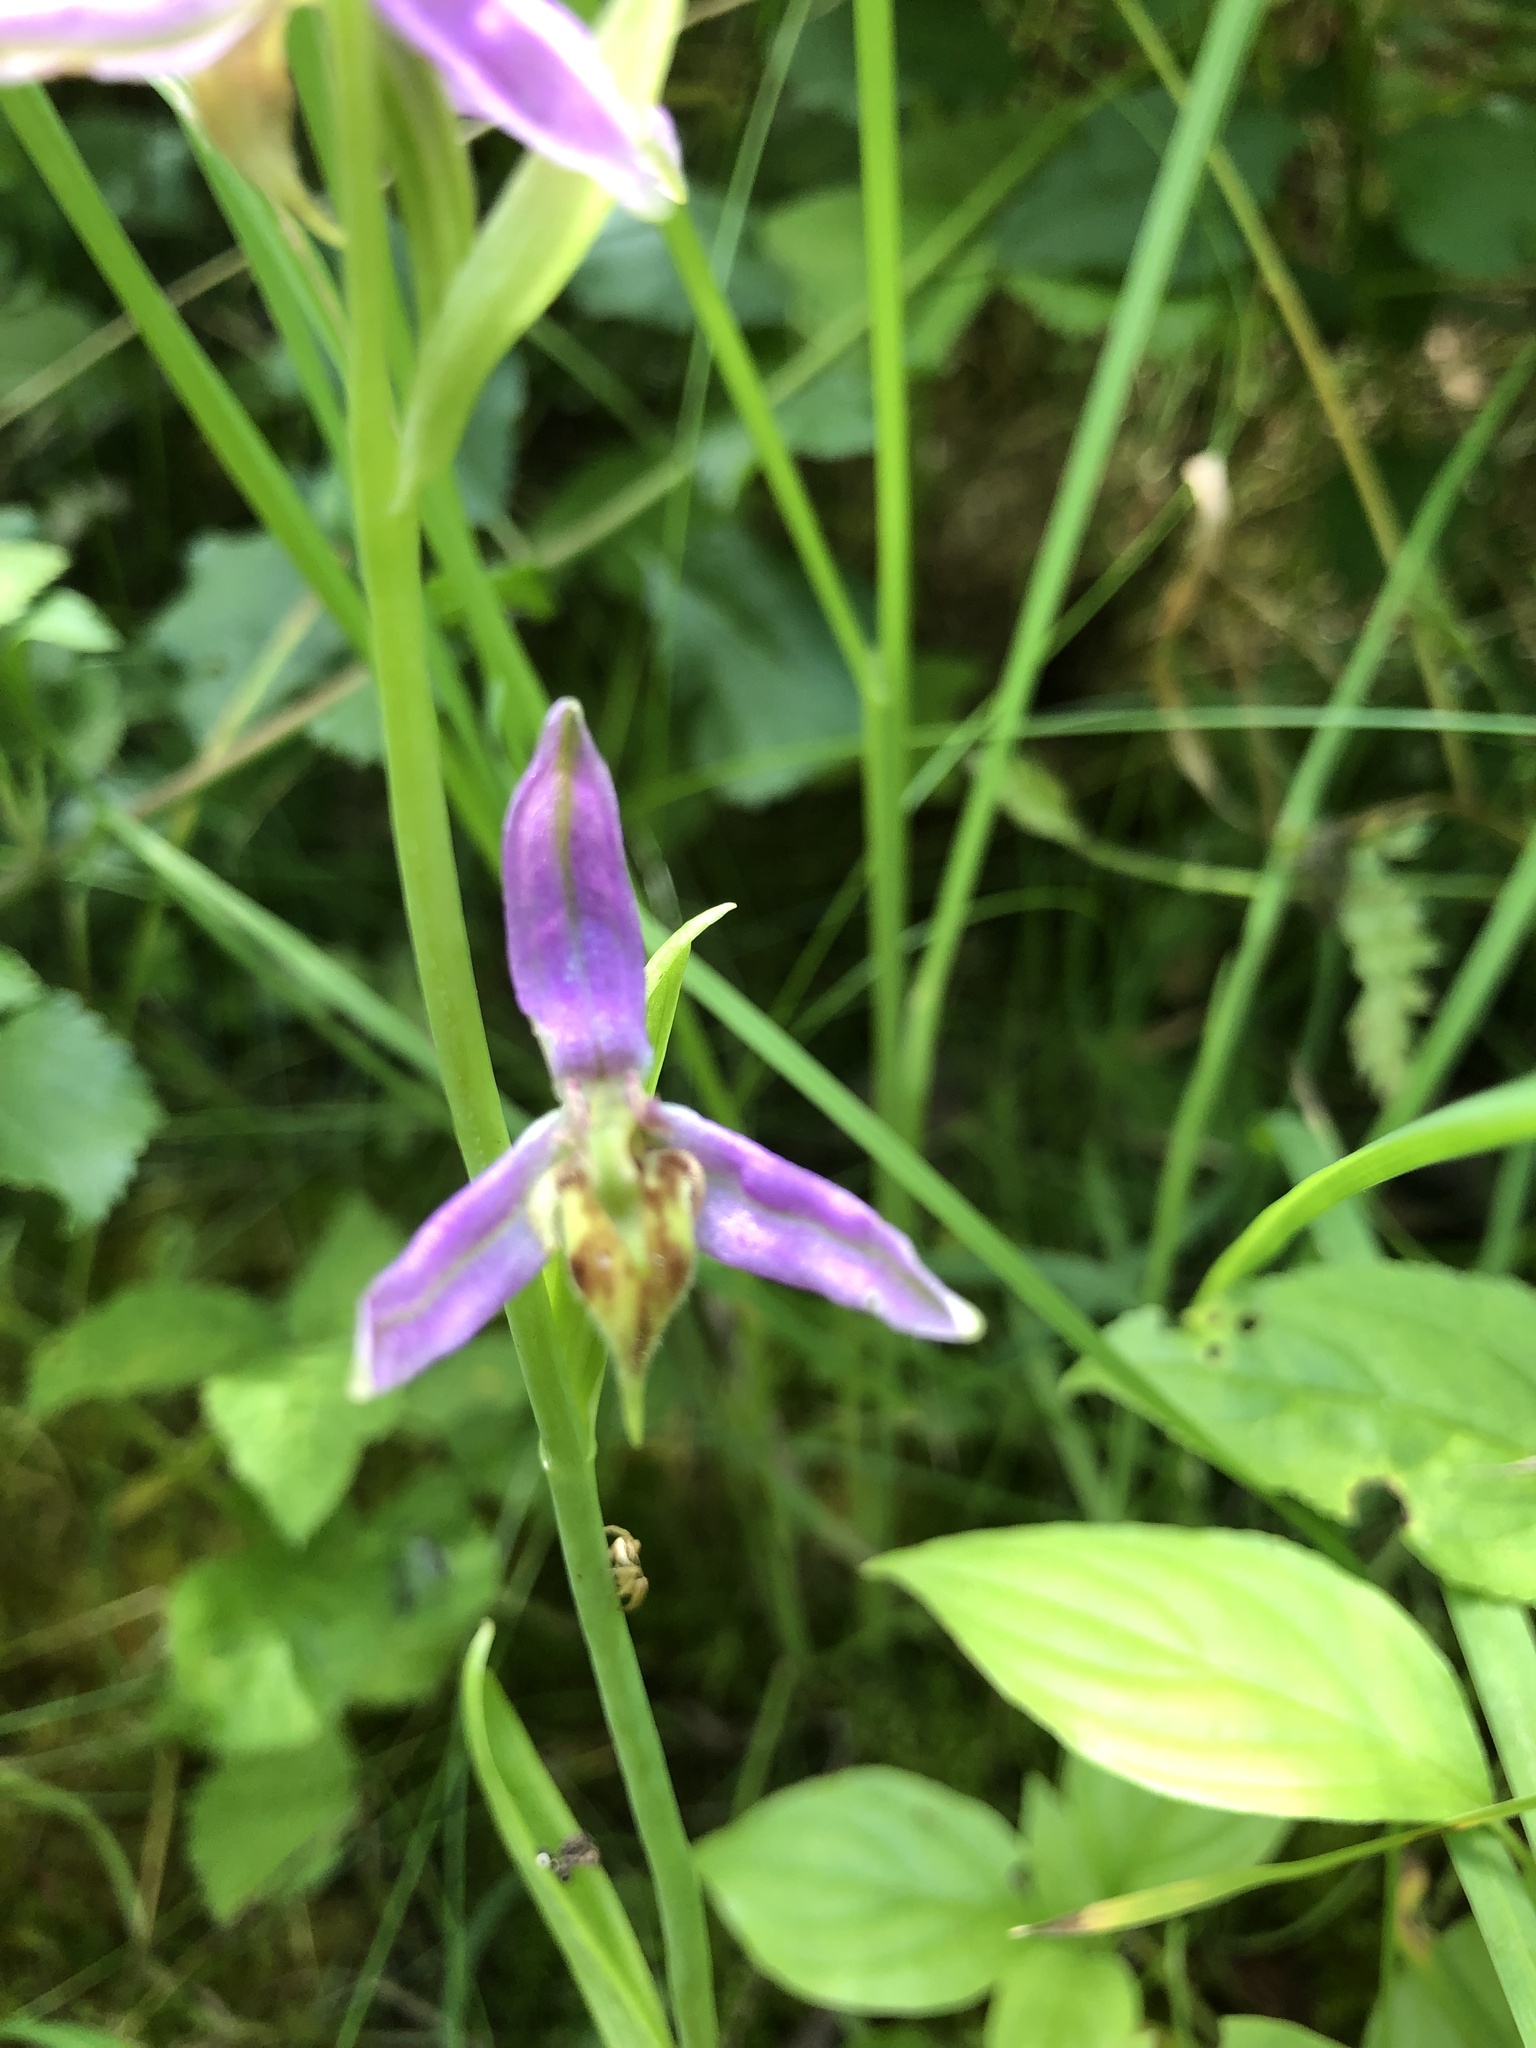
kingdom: Plantae
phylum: Tracheophyta
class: Liliopsida
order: Asparagales
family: Orchidaceae
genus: Ophrys
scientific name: Ophrys apifera
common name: Bee orchid
